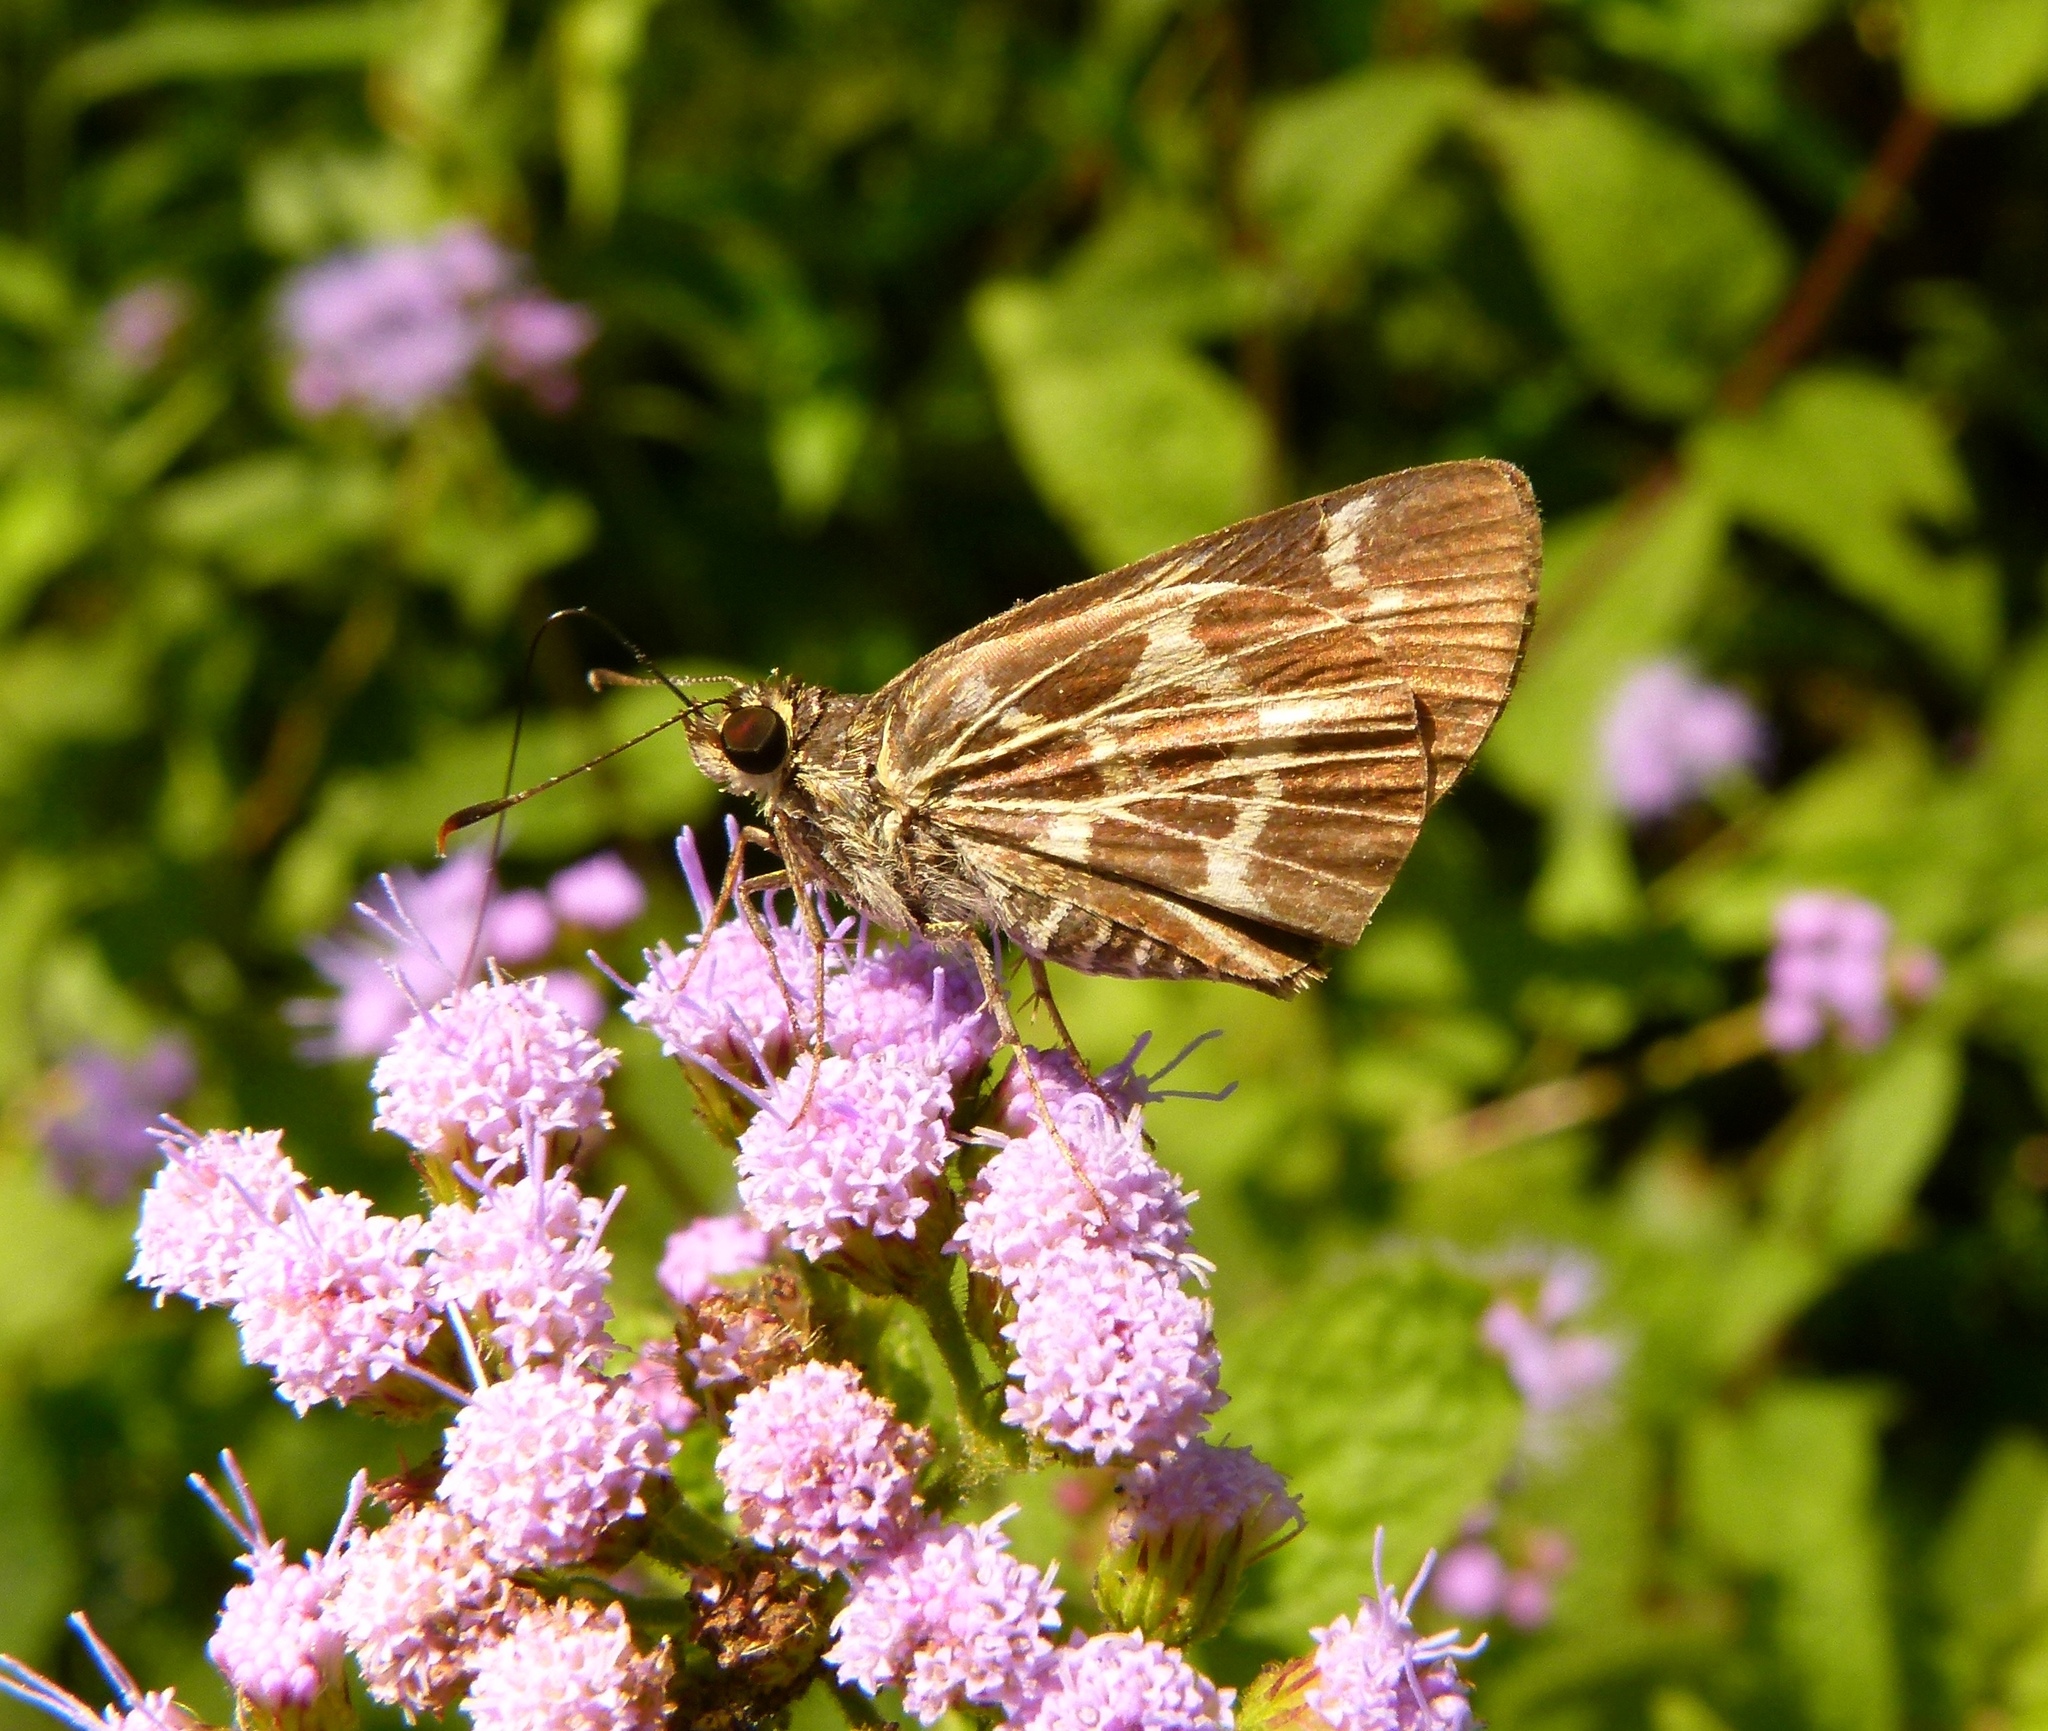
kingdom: Animalia
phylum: Arthropoda
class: Insecta
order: Lepidoptera
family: Hesperiidae
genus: Mastor
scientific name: Mastor aesculapius
